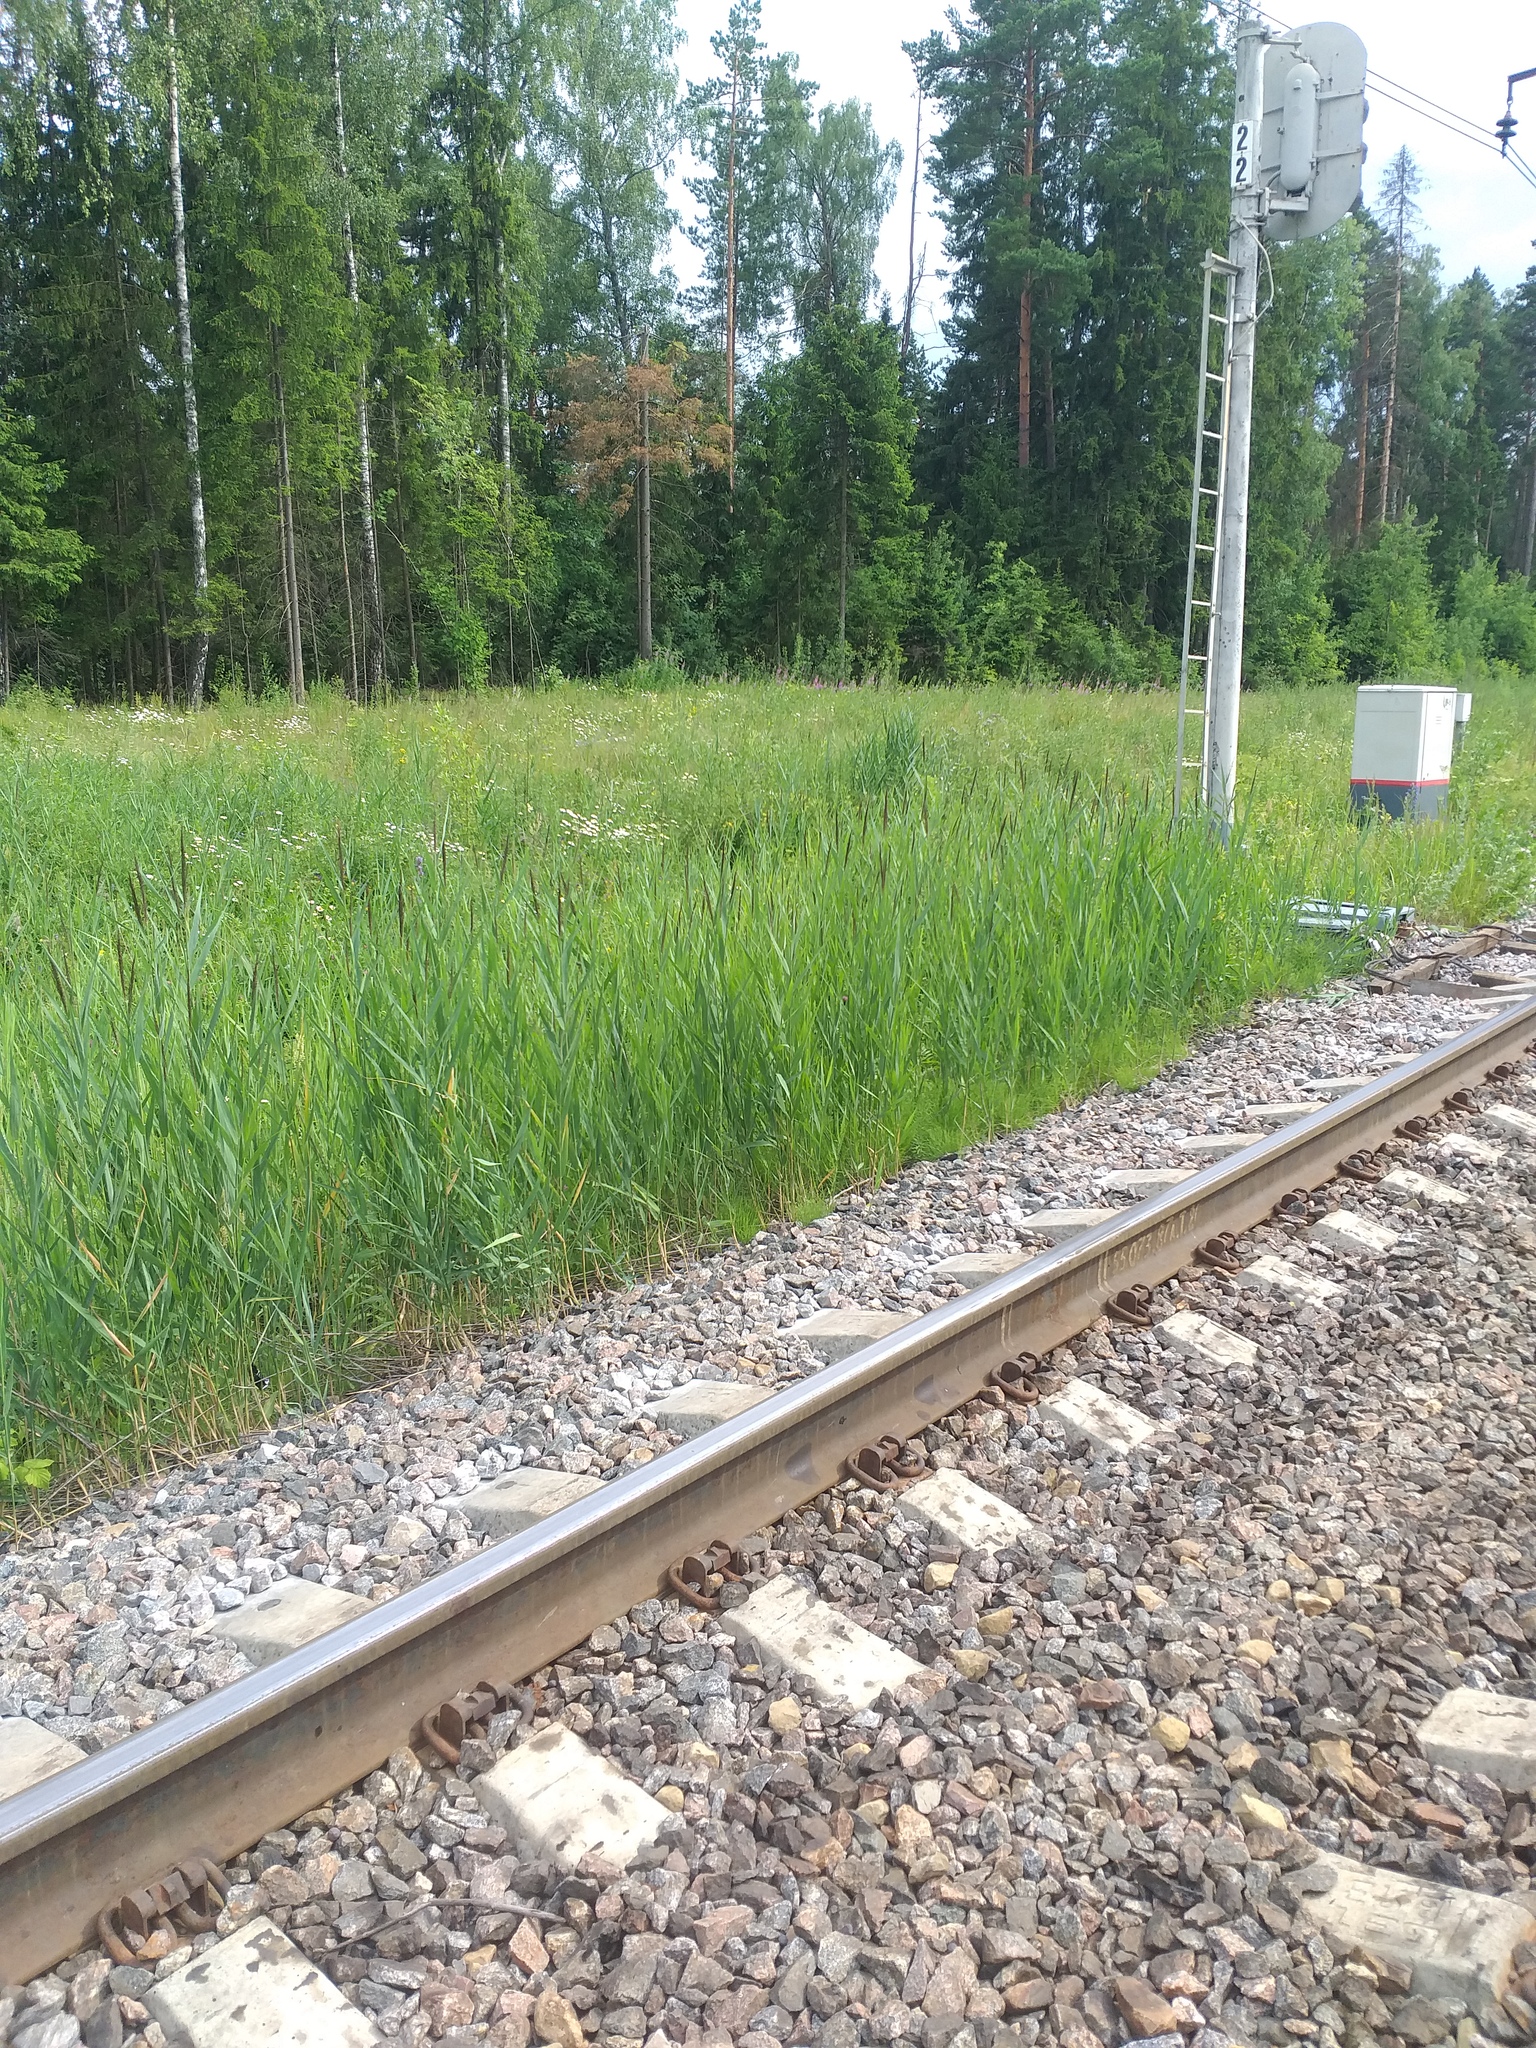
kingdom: Plantae
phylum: Tracheophyta
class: Liliopsida
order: Poales
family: Poaceae
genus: Phragmites
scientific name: Phragmites australis
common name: Common reed
